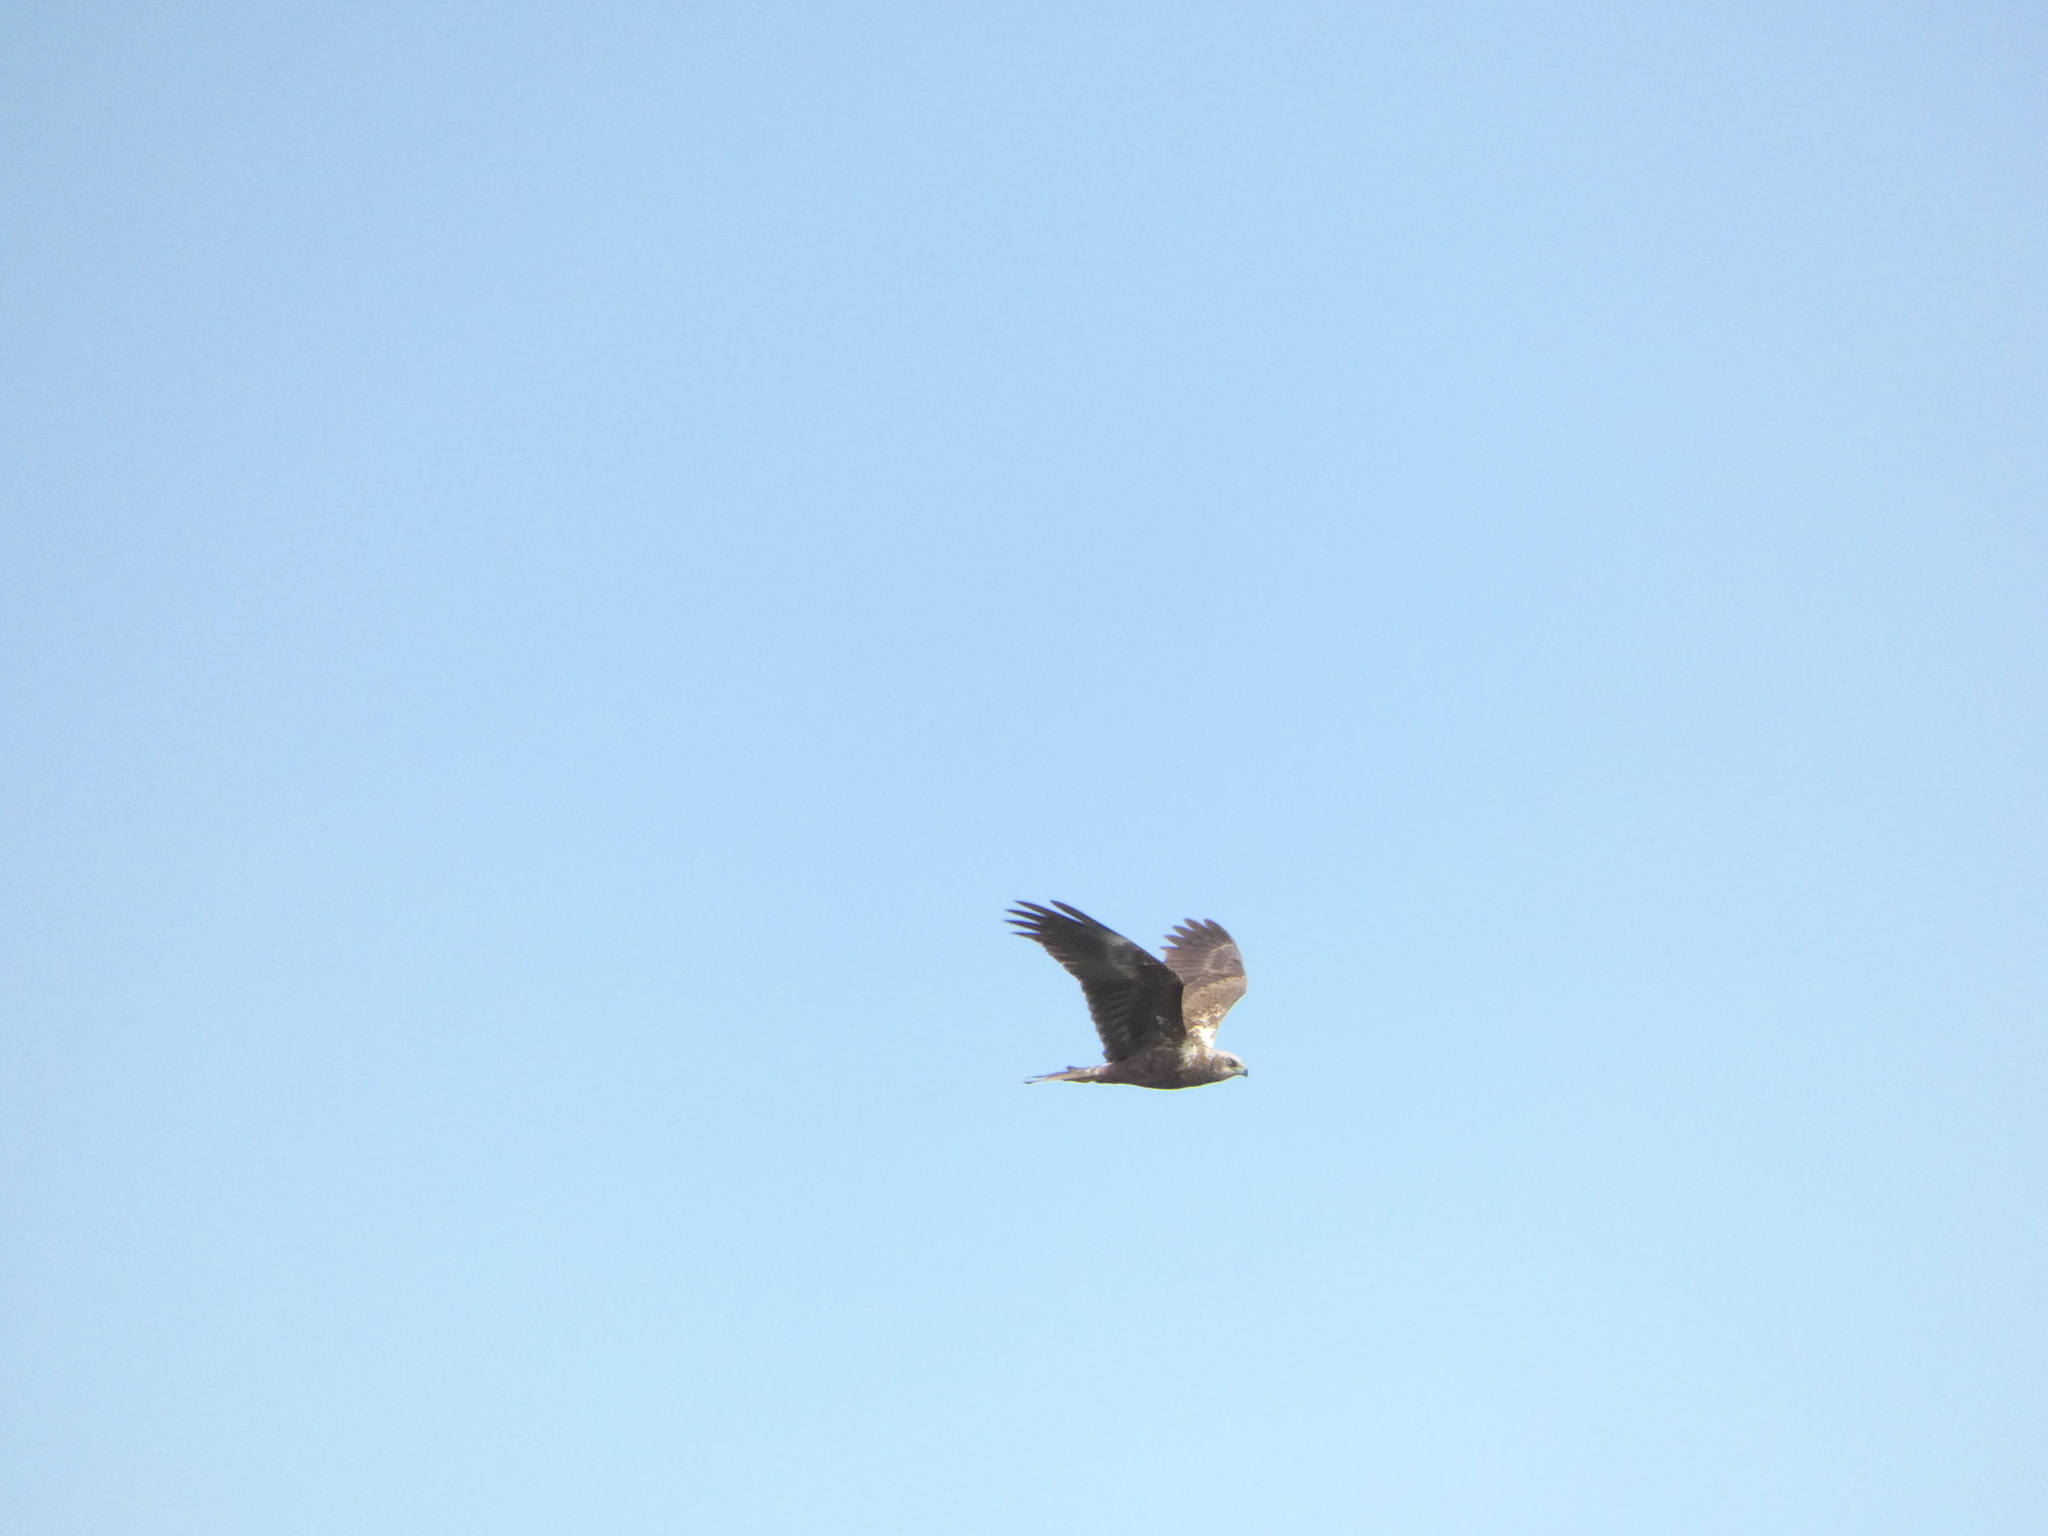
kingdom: Animalia
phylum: Chordata
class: Aves
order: Accipitriformes
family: Accipitridae
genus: Circus
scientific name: Circus aeruginosus
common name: Western marsh harrier
